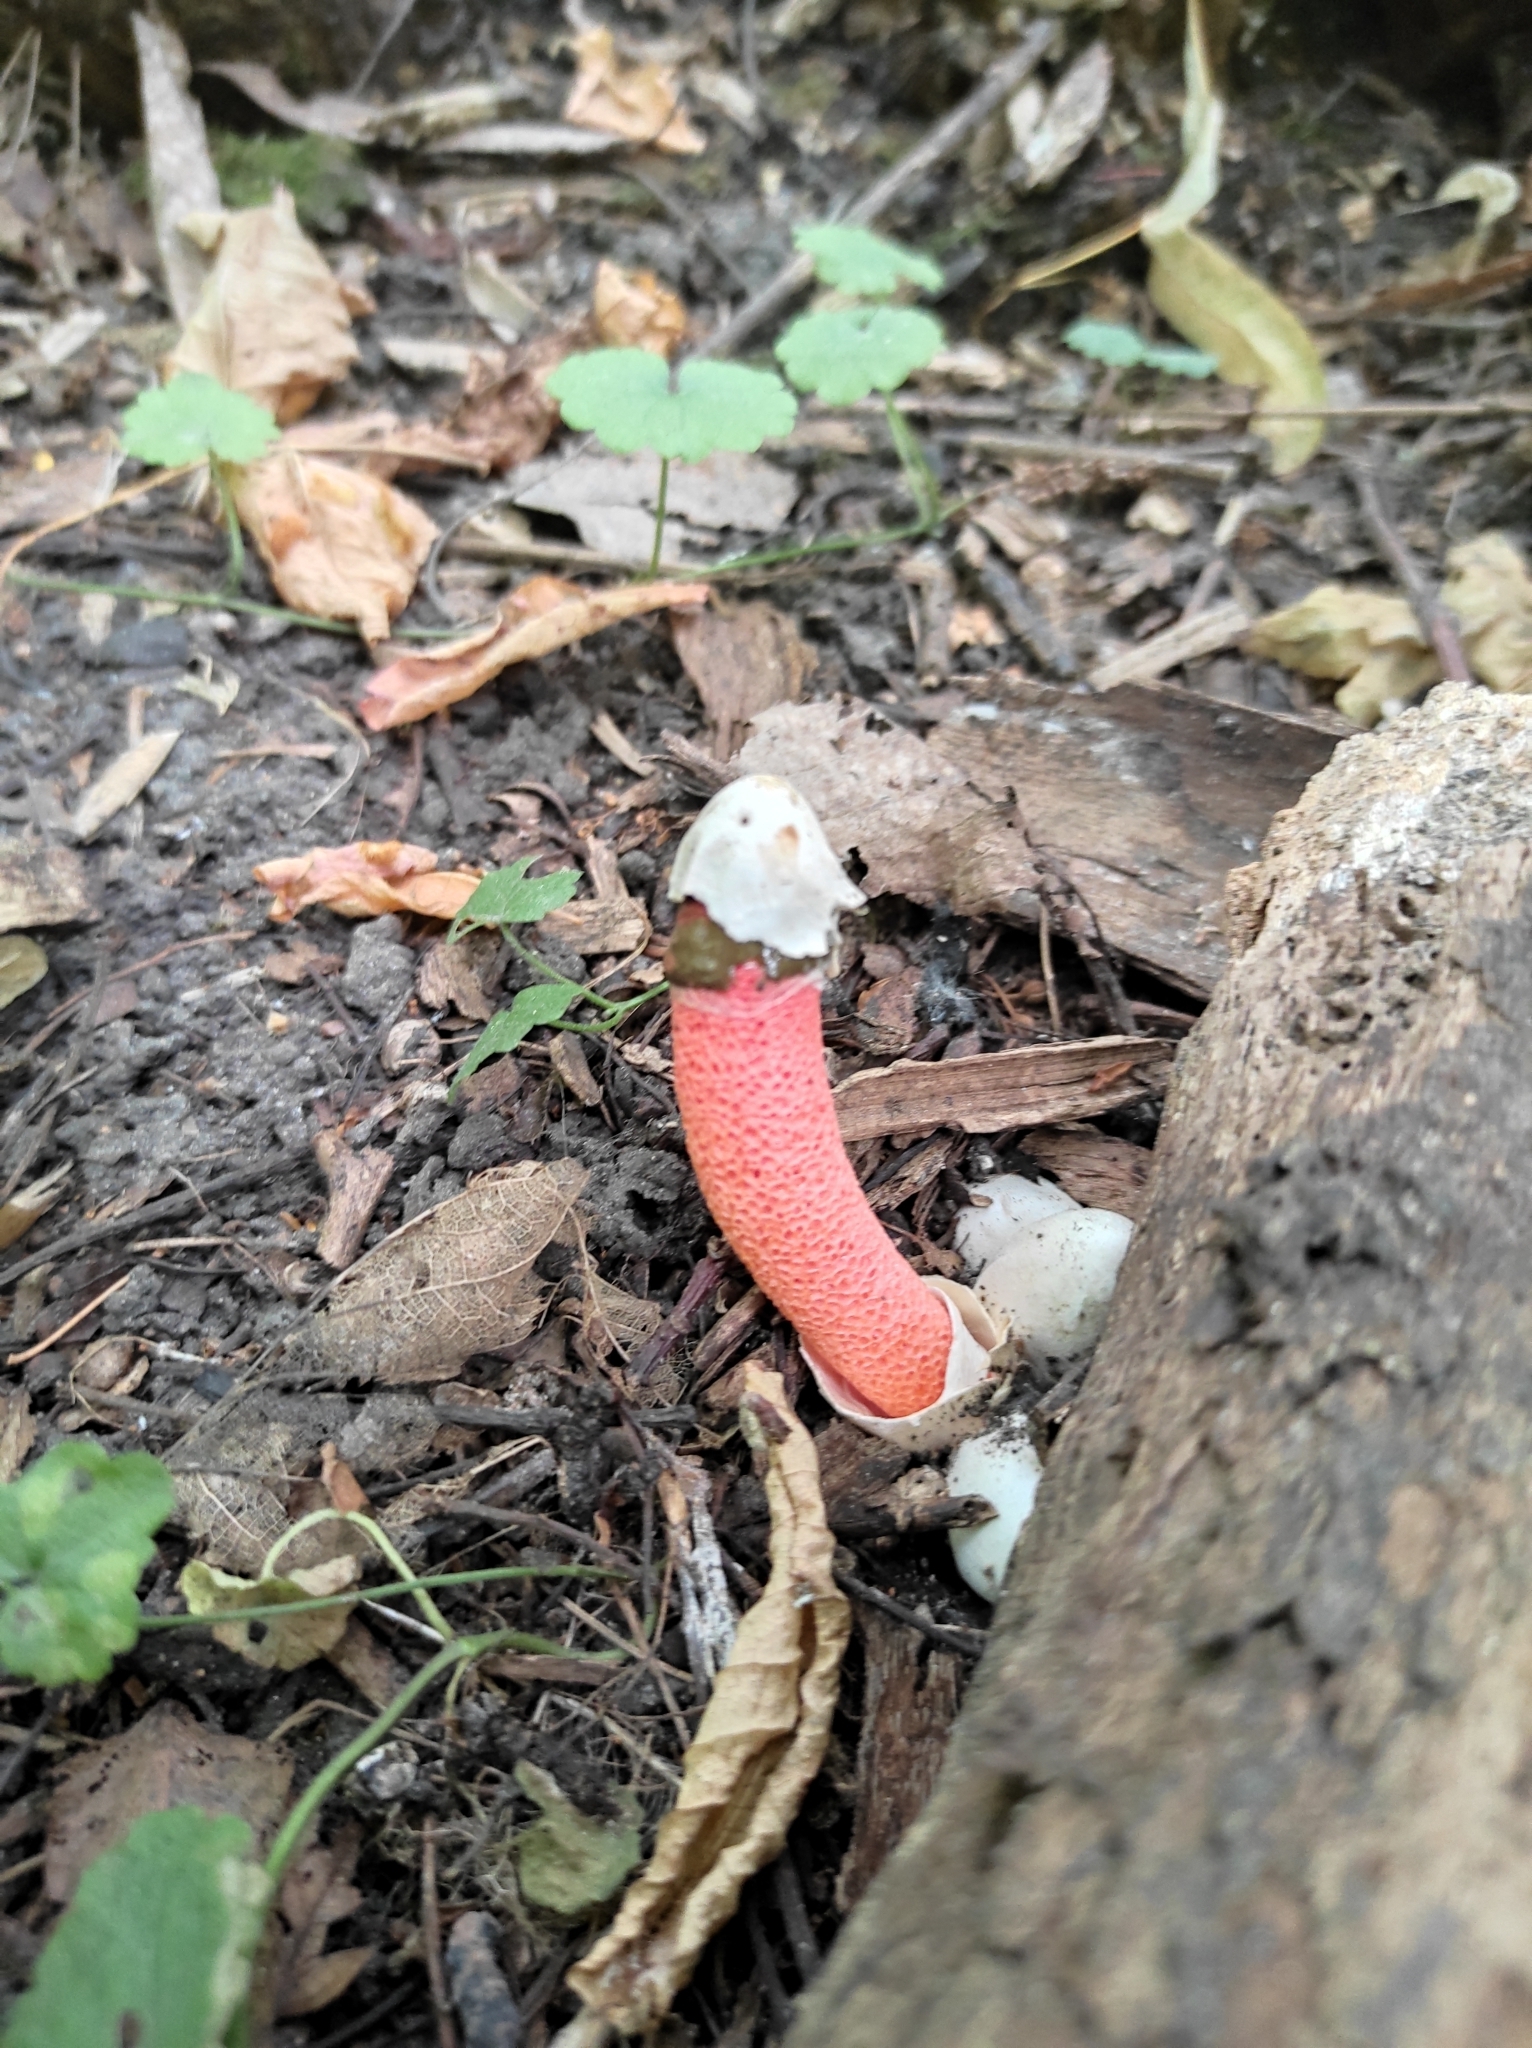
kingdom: Fungi
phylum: Basidiomycota
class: Agaricomycetes
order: Phallales
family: Phallaceae
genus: Mutinus
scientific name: Mutinus ravenelii
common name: Red stinkhorn
